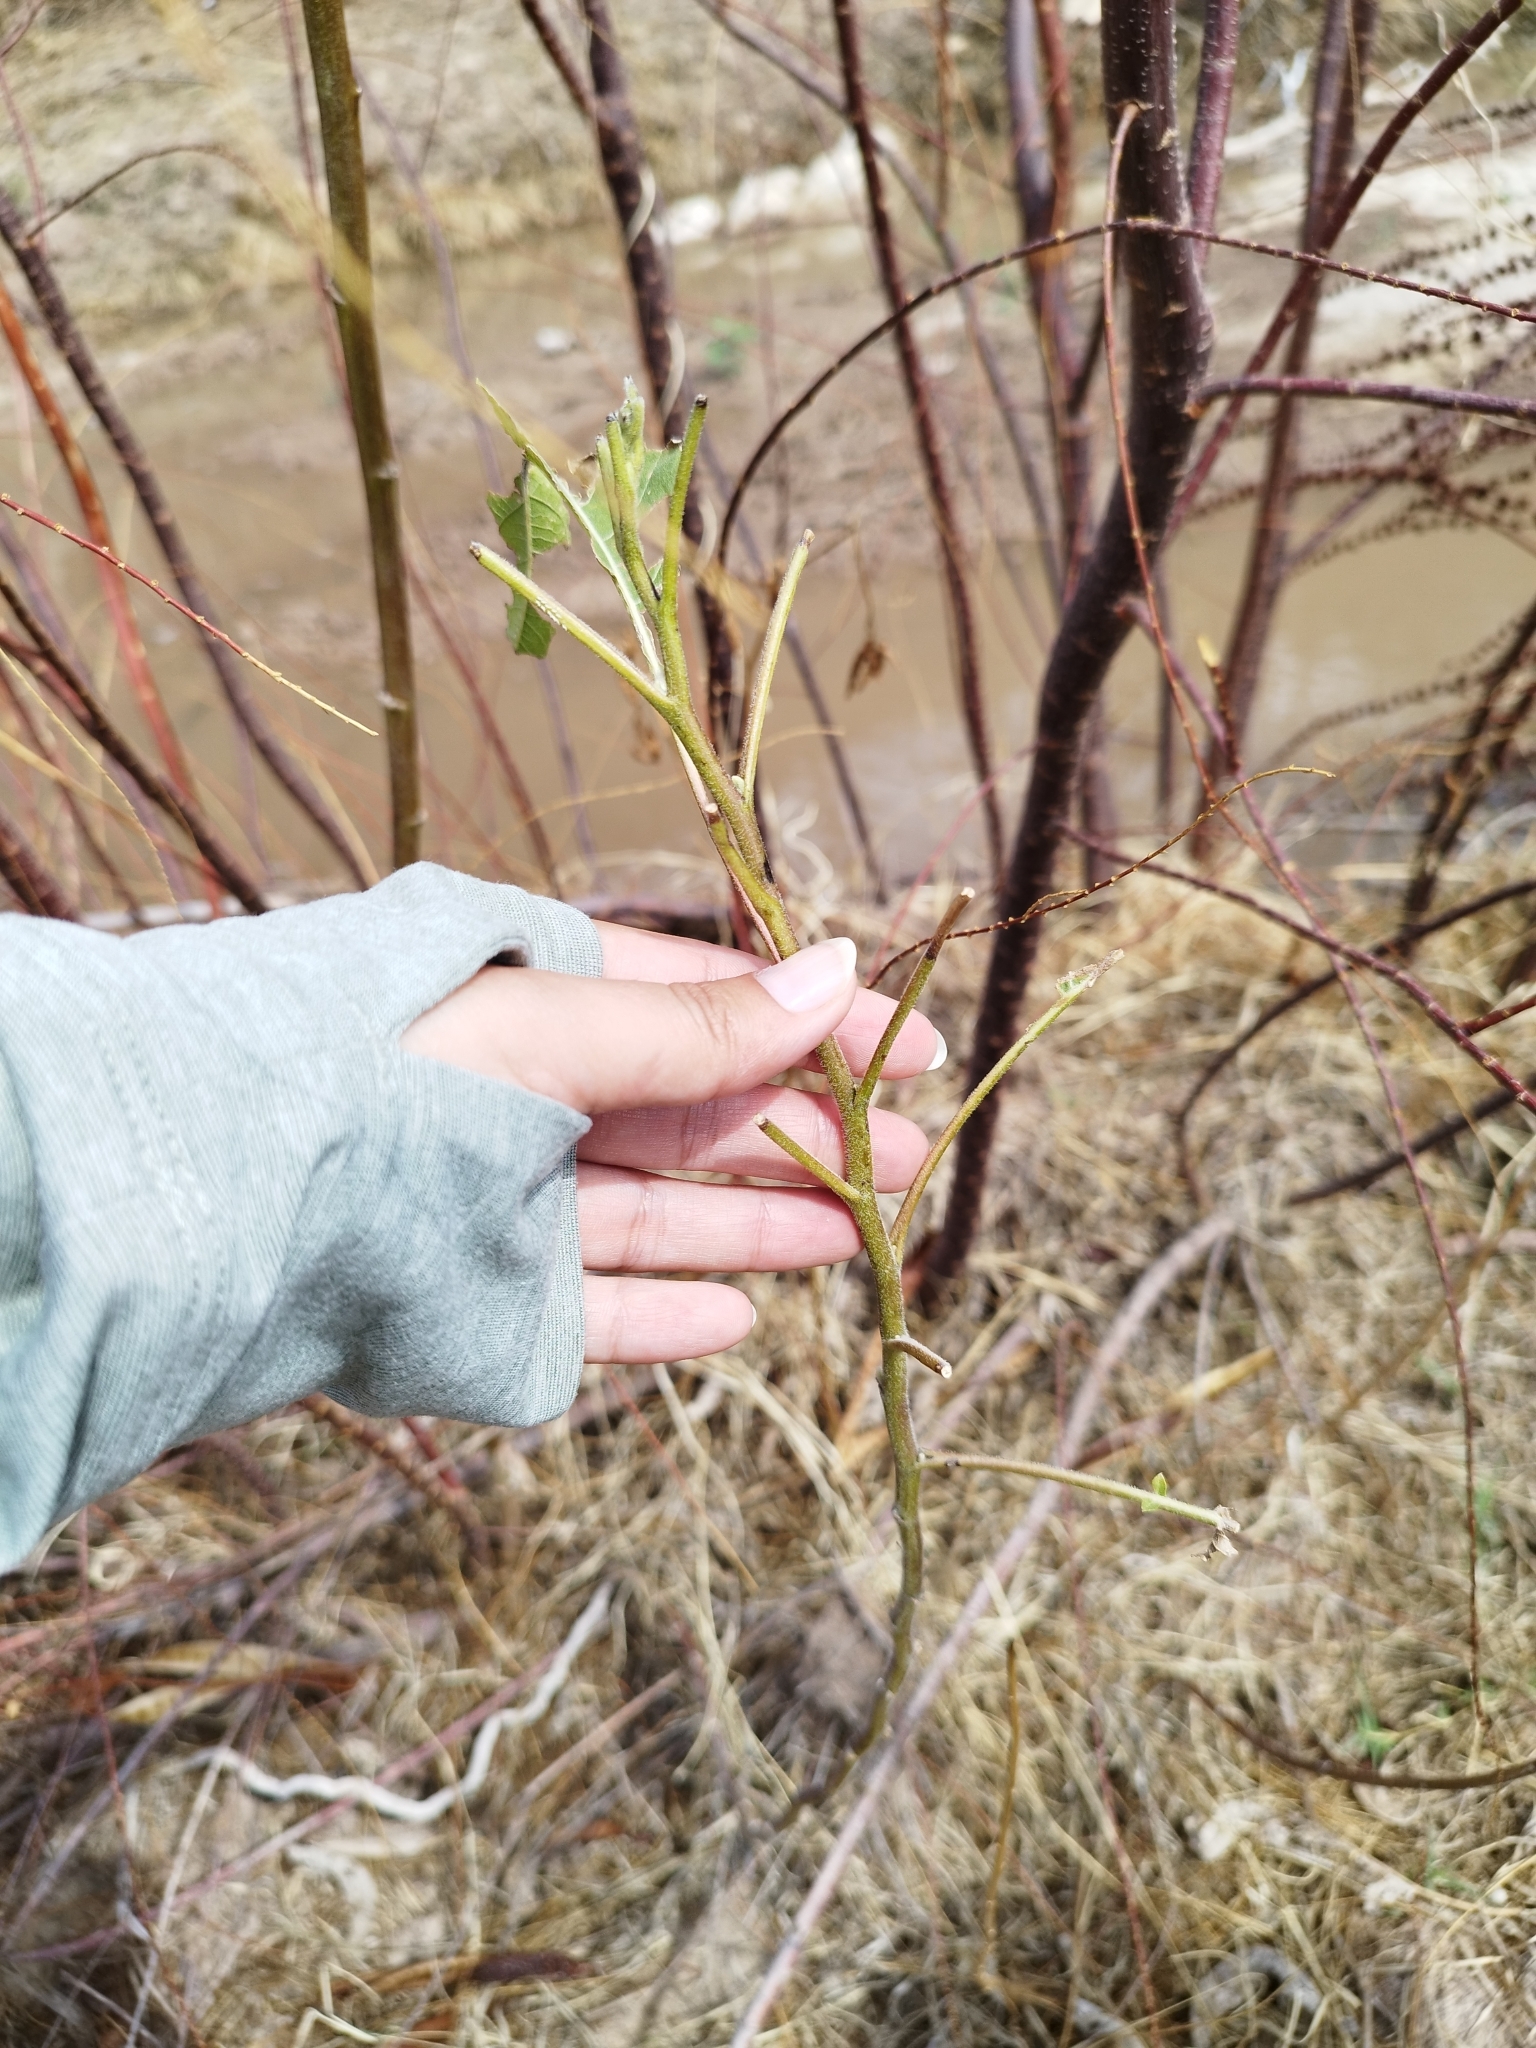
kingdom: Plantae
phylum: Tracheophyta
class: Magnoliopsida
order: Asterales
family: Asteraceae
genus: Ambrosia
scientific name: Ambrosia ambrosioides
